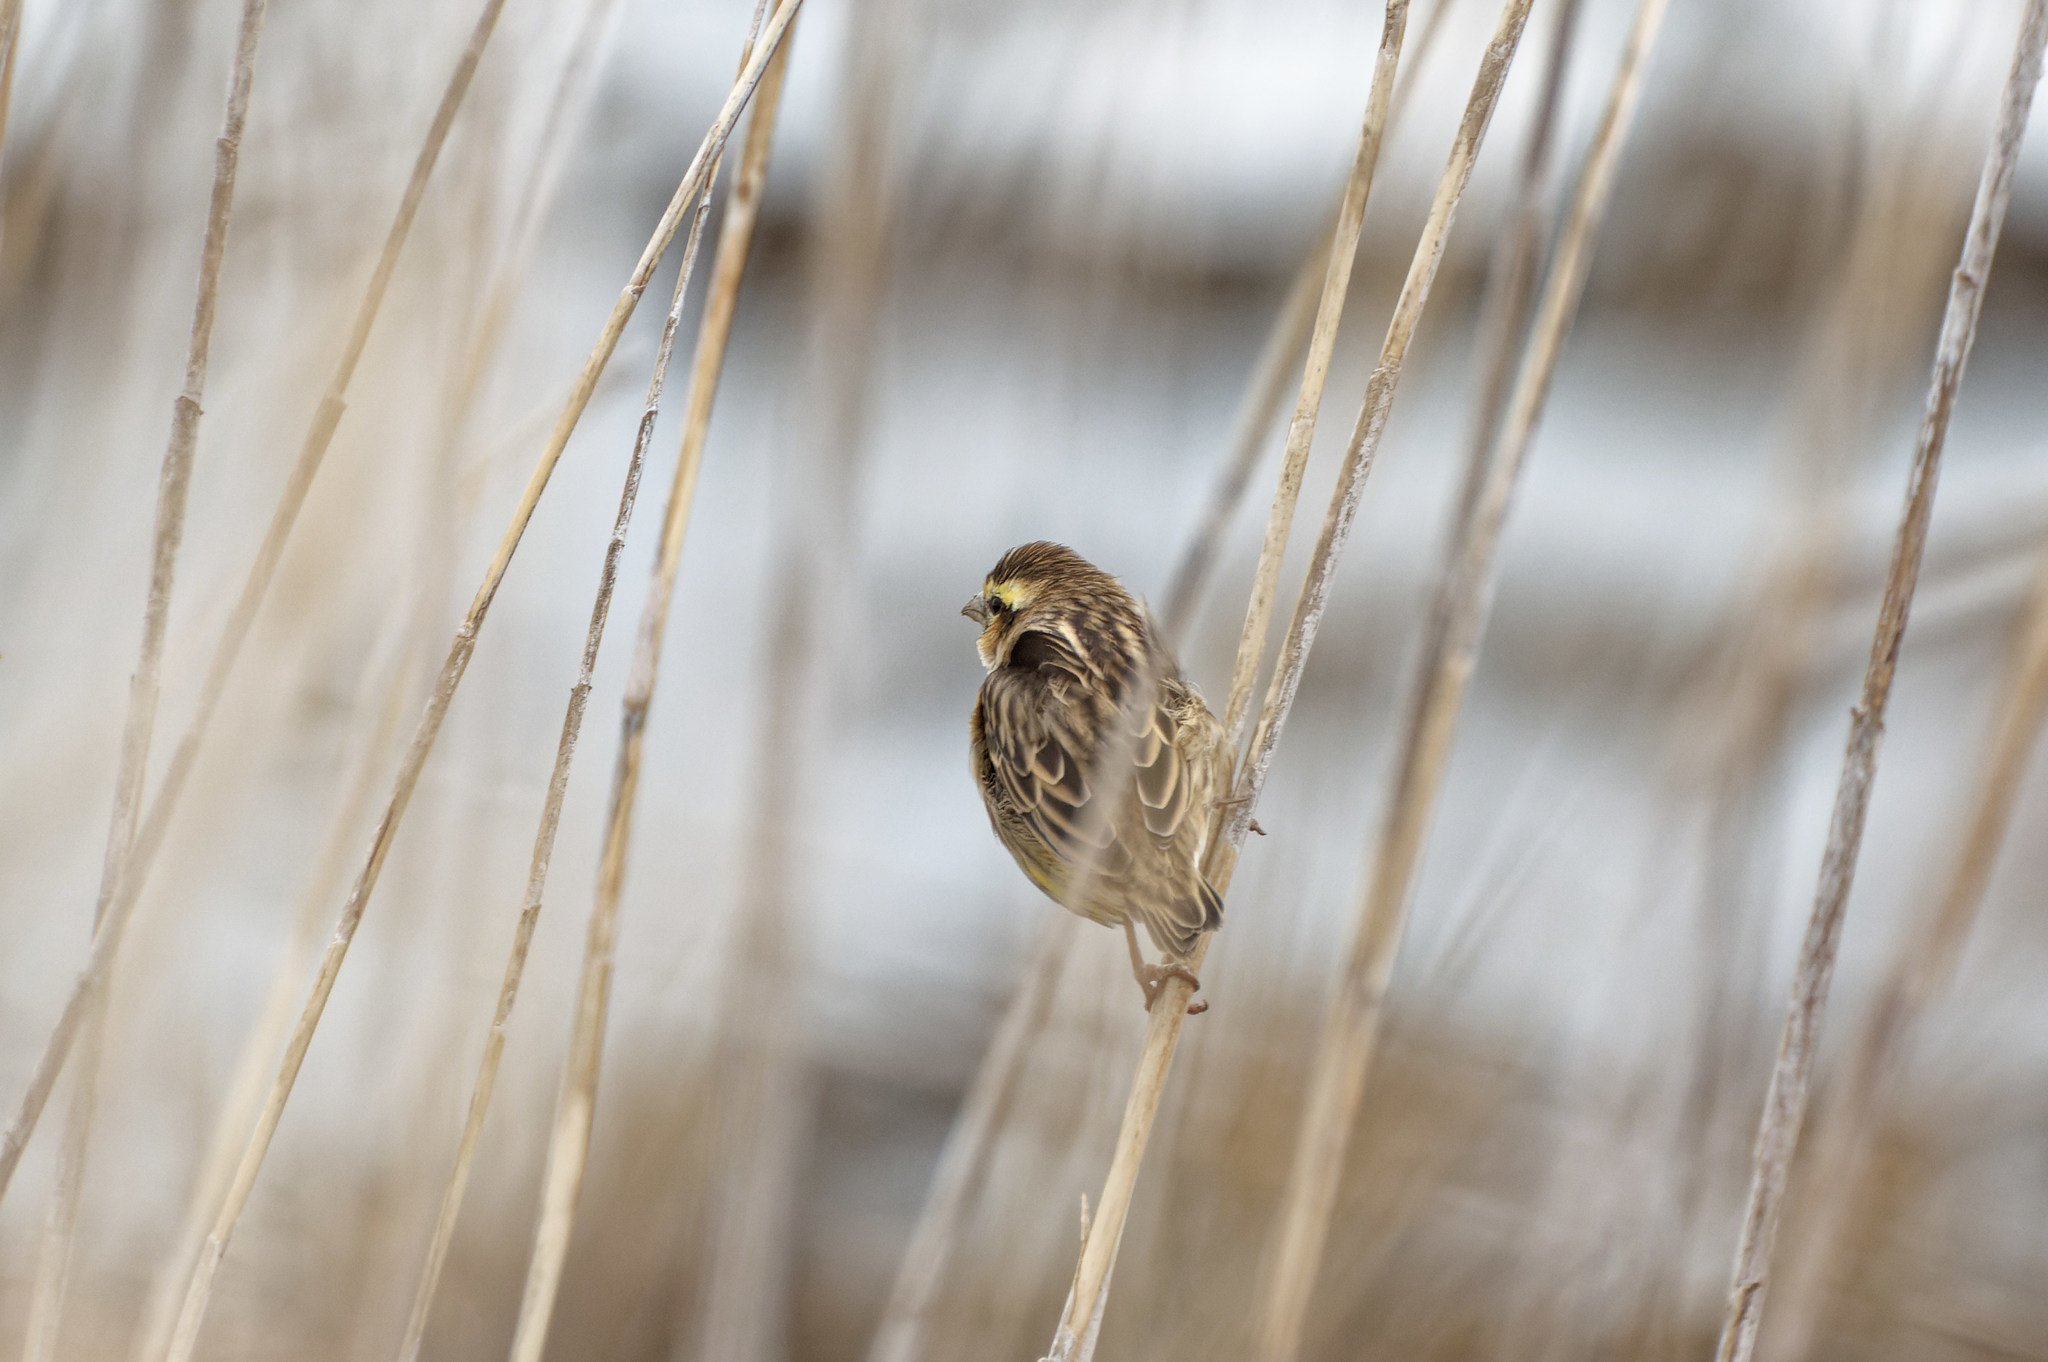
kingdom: Animalia
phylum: Chordata
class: Aves
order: Passeriformes
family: Ploceidae
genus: Euplectes
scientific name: Euplectes afer
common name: Yellow-crowned bishop
